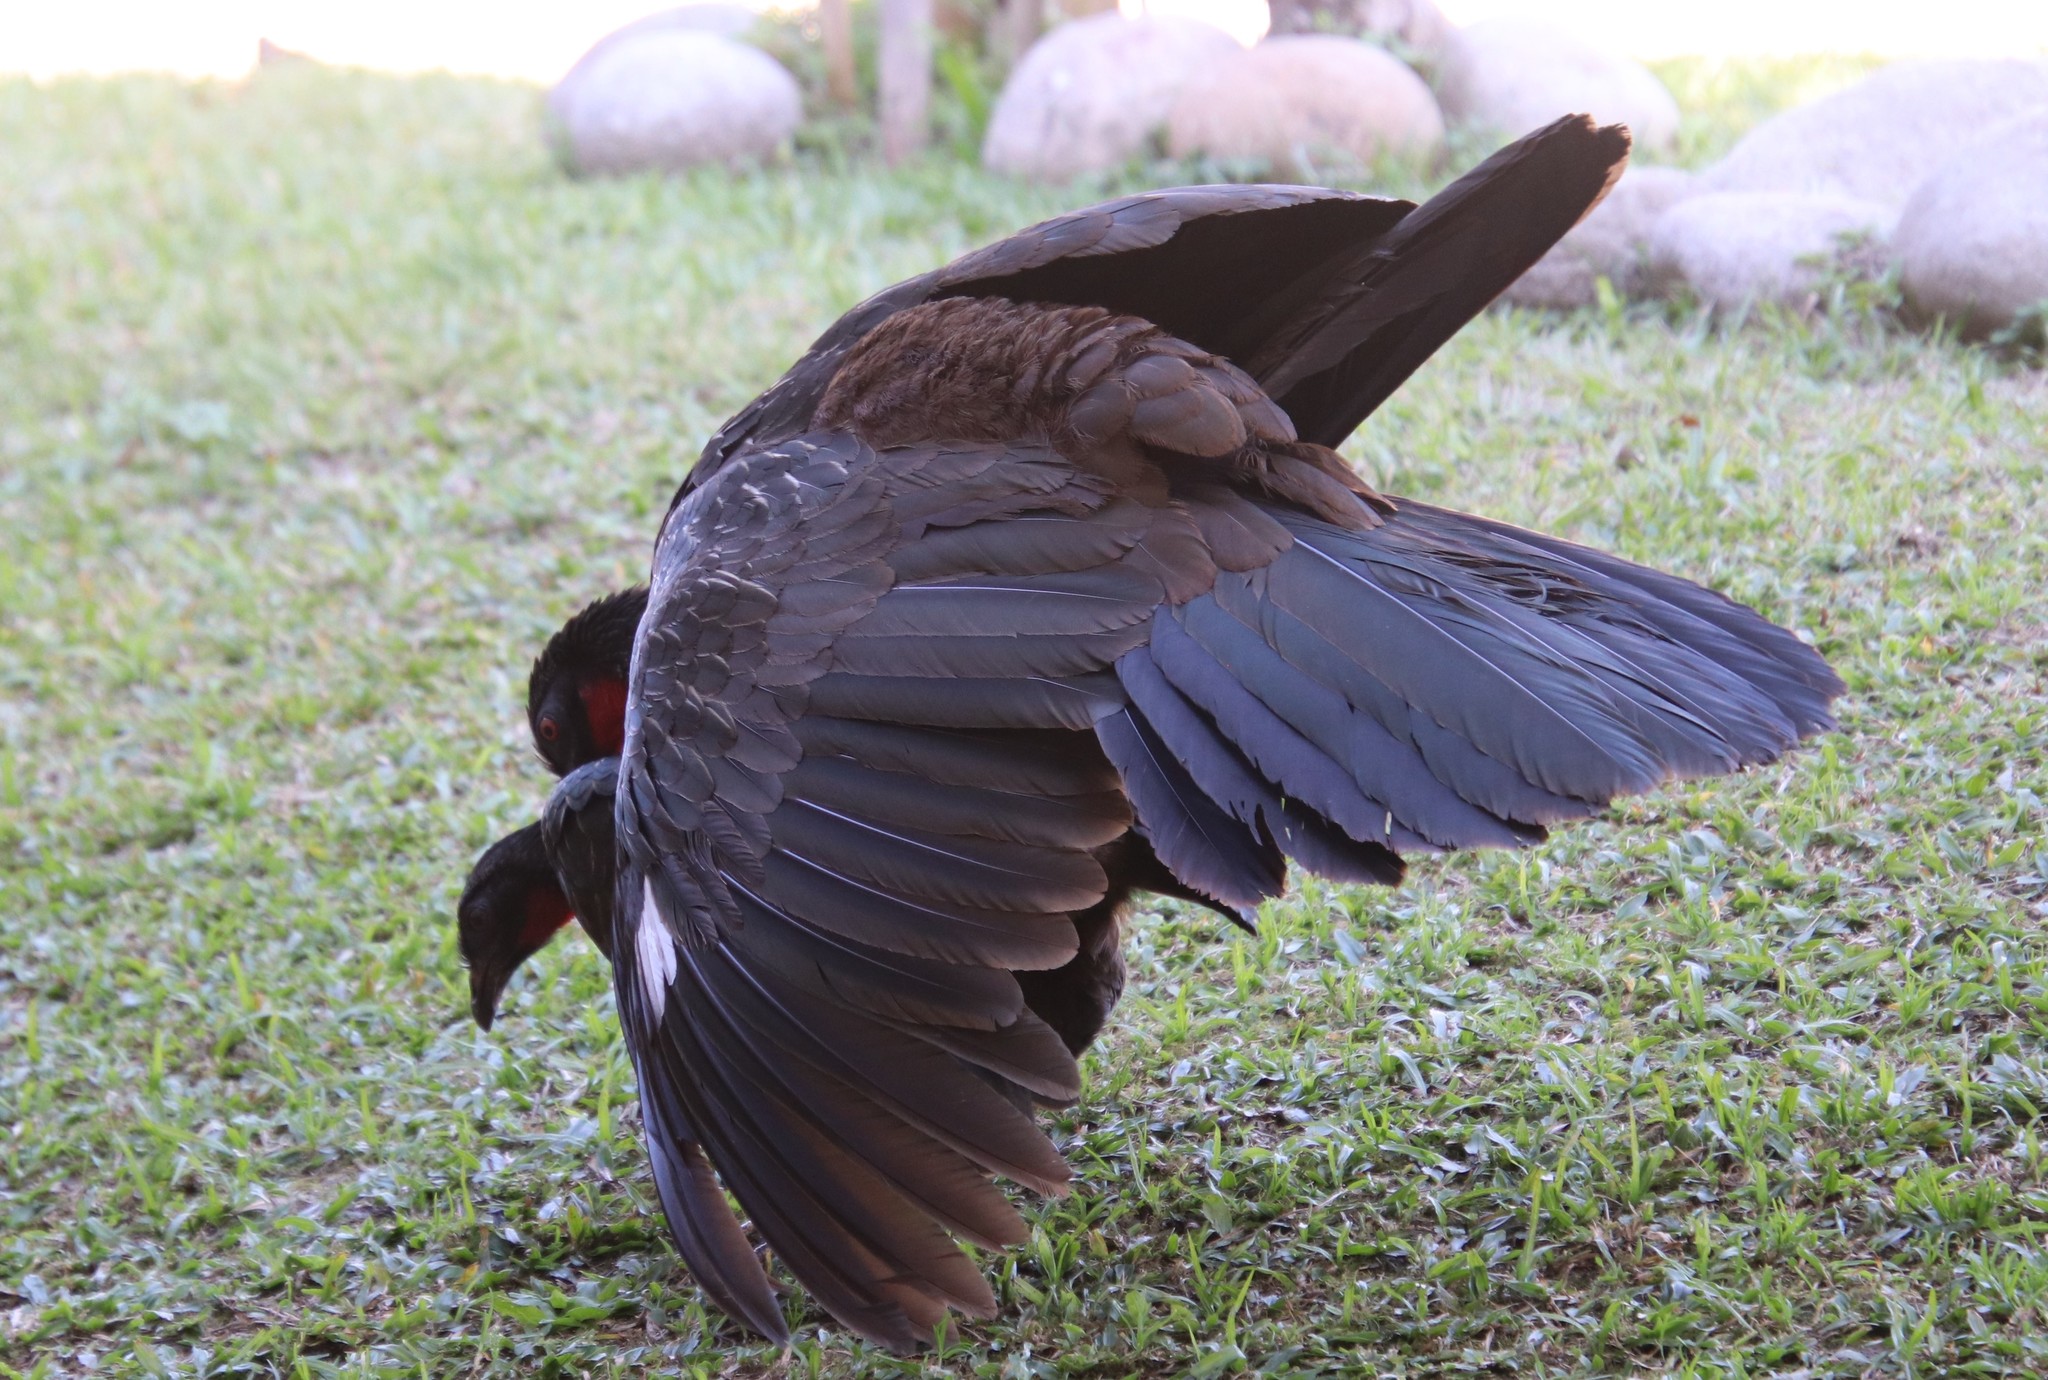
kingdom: Animalia
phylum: Chordata
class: Aves
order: Galliformes
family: Cracidae
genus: Penelope
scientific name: Penelope obscura
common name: Dusky-legged guan
